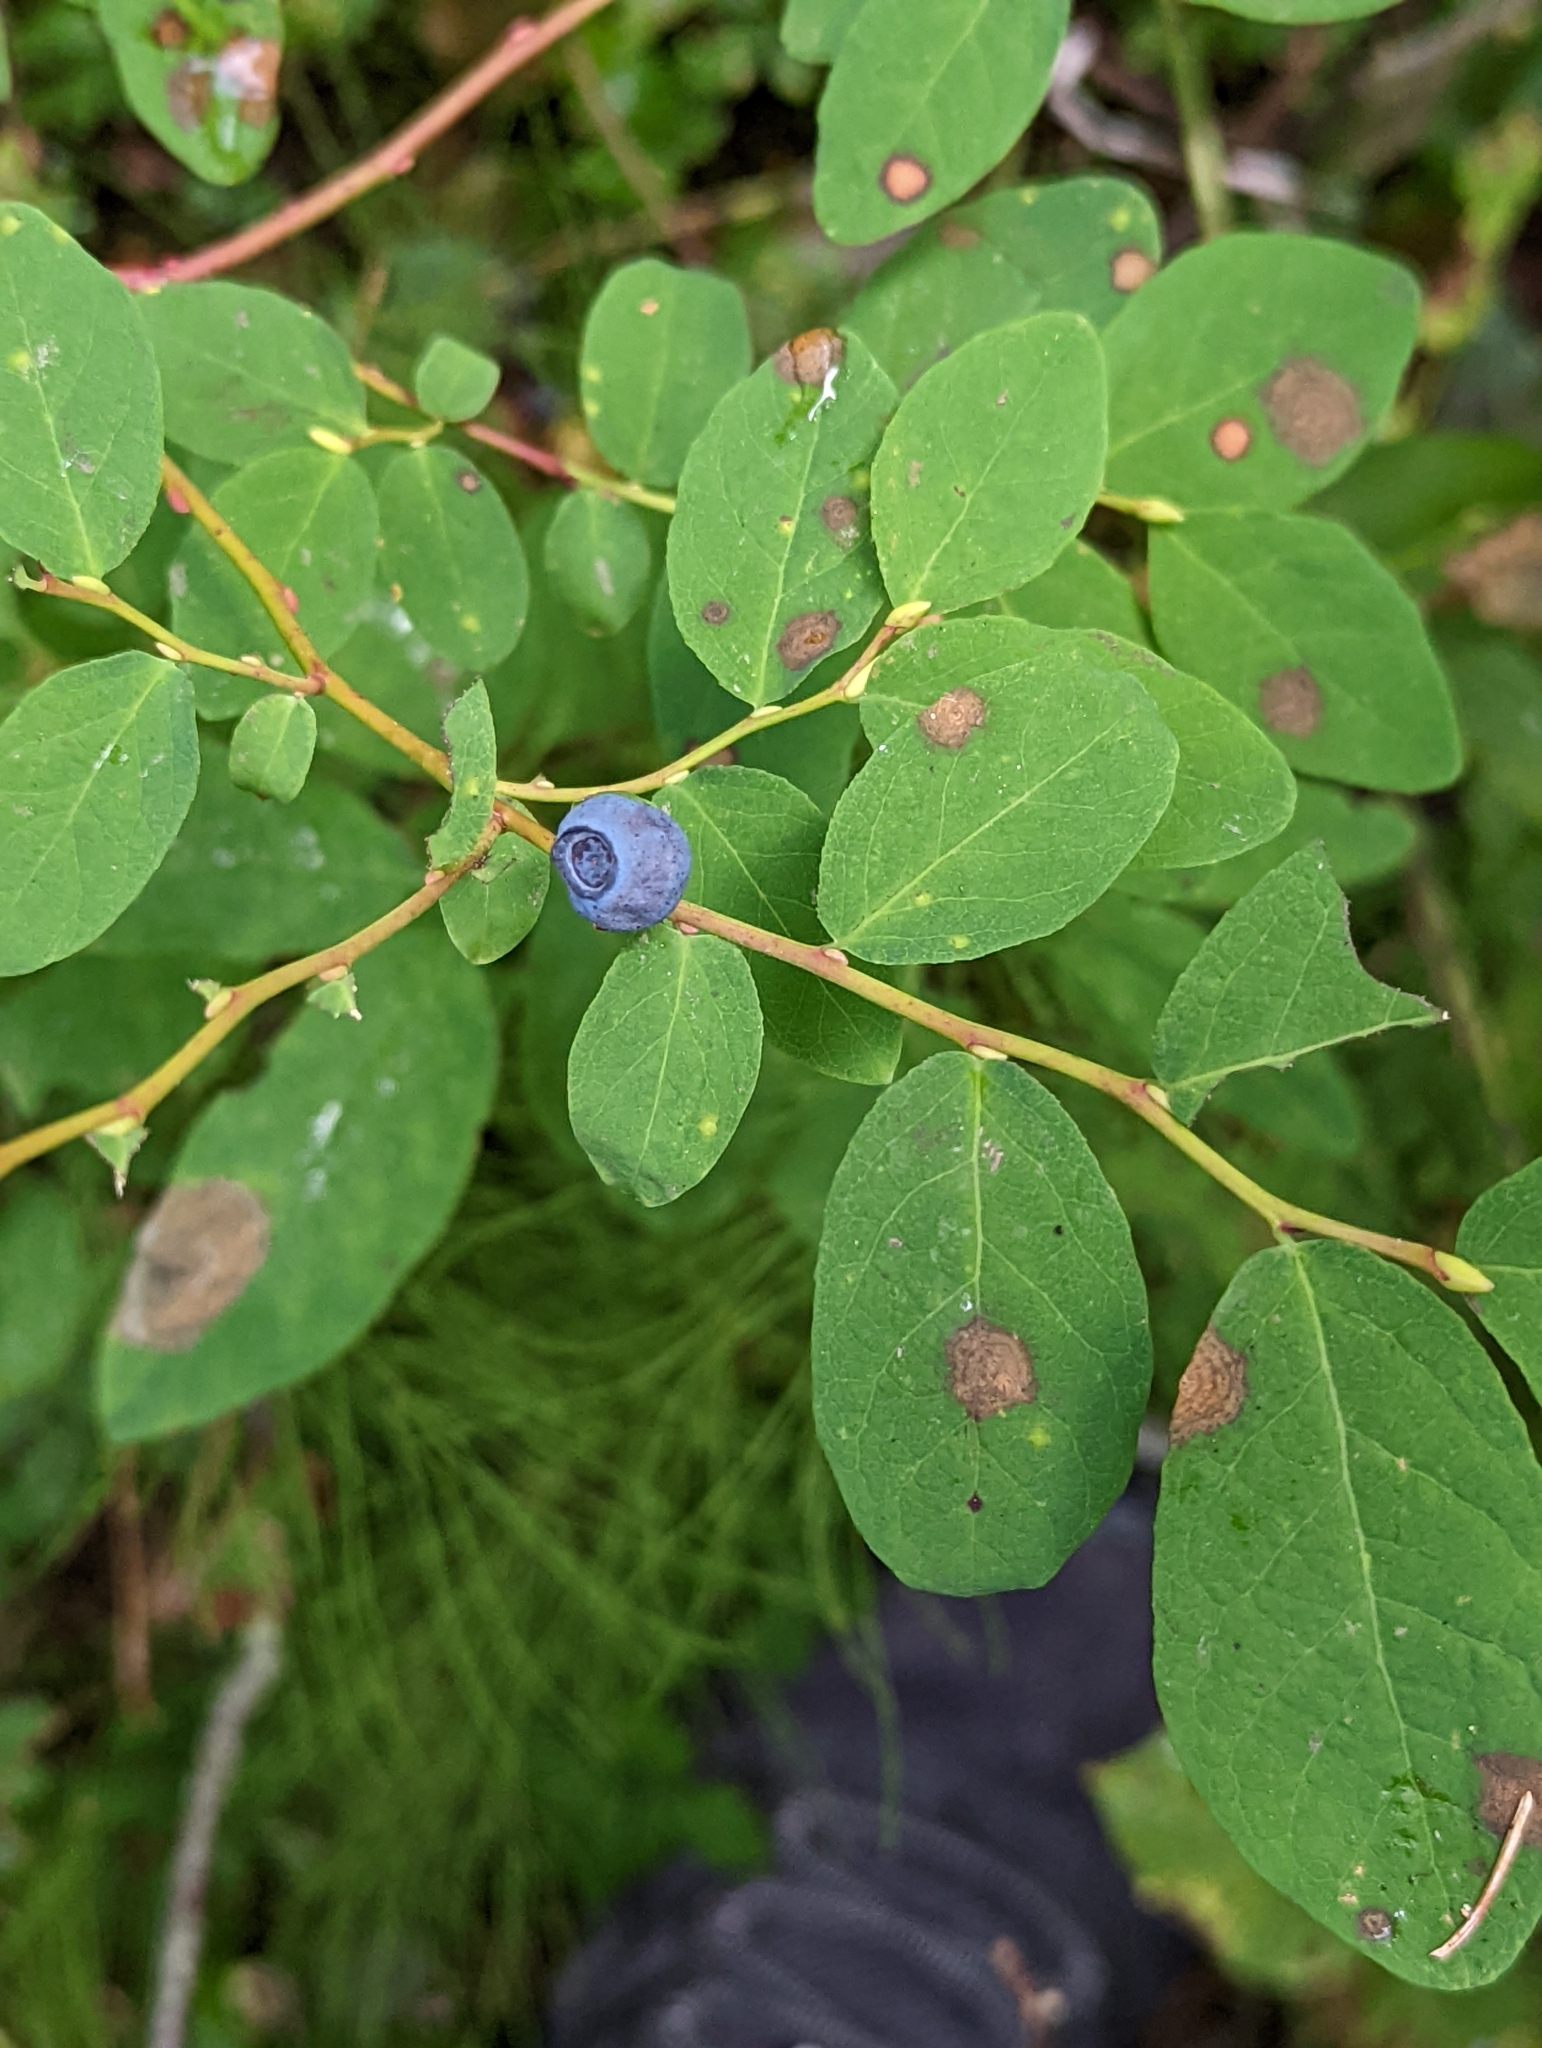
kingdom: Plantae
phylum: Tracheophyta
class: Magnoliopsida
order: Ericales
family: Ericaceae
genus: Vaccinium
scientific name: Vaccinium ovalifolium
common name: Early blueberry
